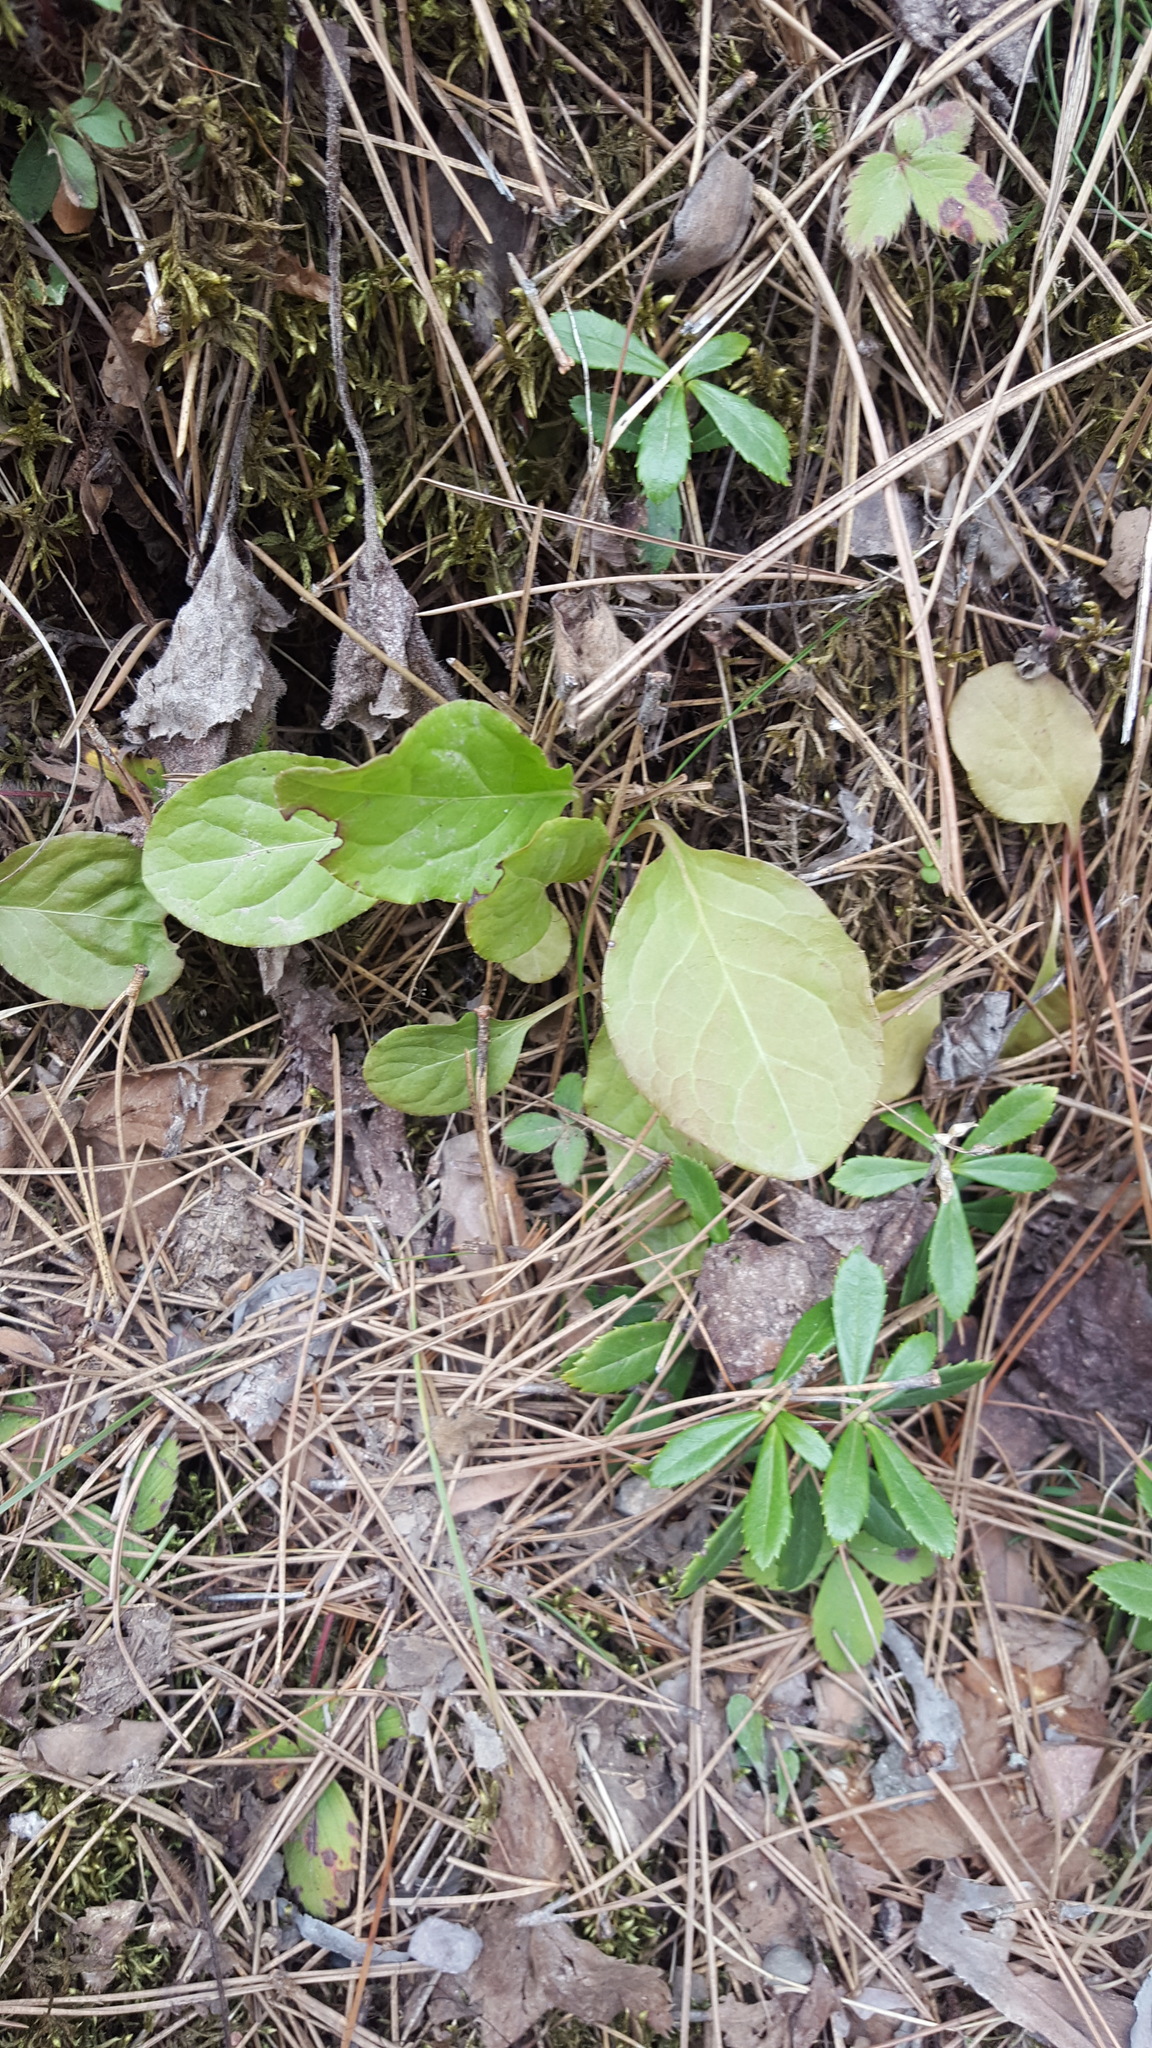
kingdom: Plantae
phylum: Tracheophyta
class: Magnoliopsida
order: Ericales
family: Ericaceae
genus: Pyrola
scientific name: Pyrola elliptica
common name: Shinleaf
